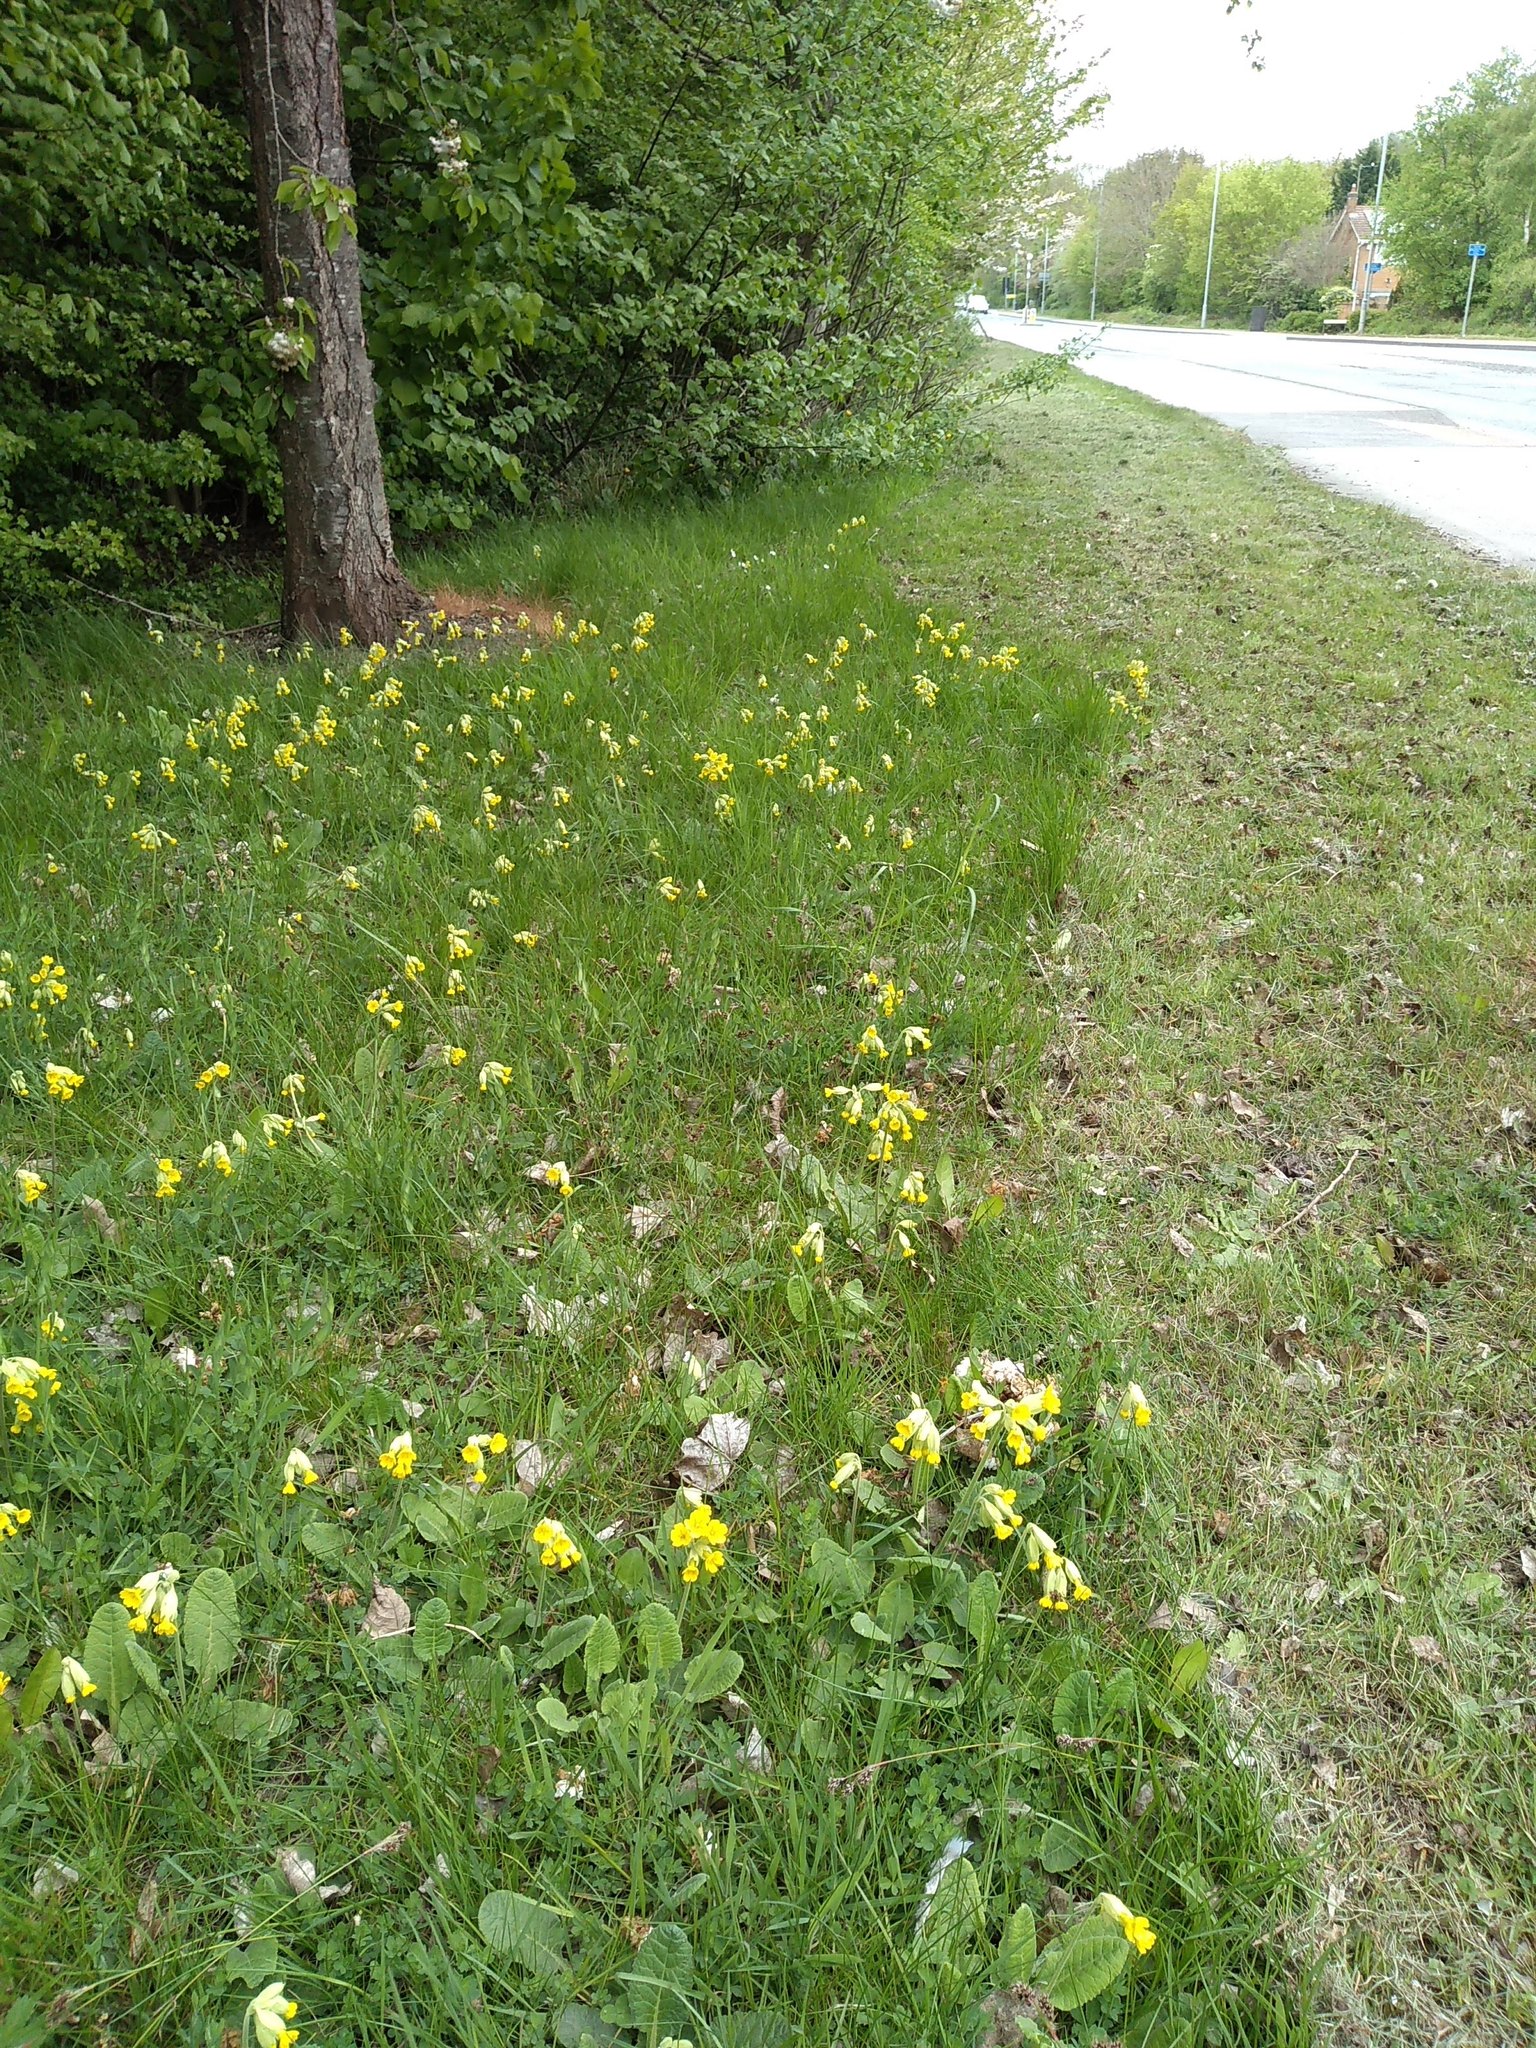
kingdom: Plantae
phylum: Tracheophyta
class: Magnoliopsida
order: Ericales
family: Primulaceae
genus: Primula
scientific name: Primula veris
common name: Cowslip
